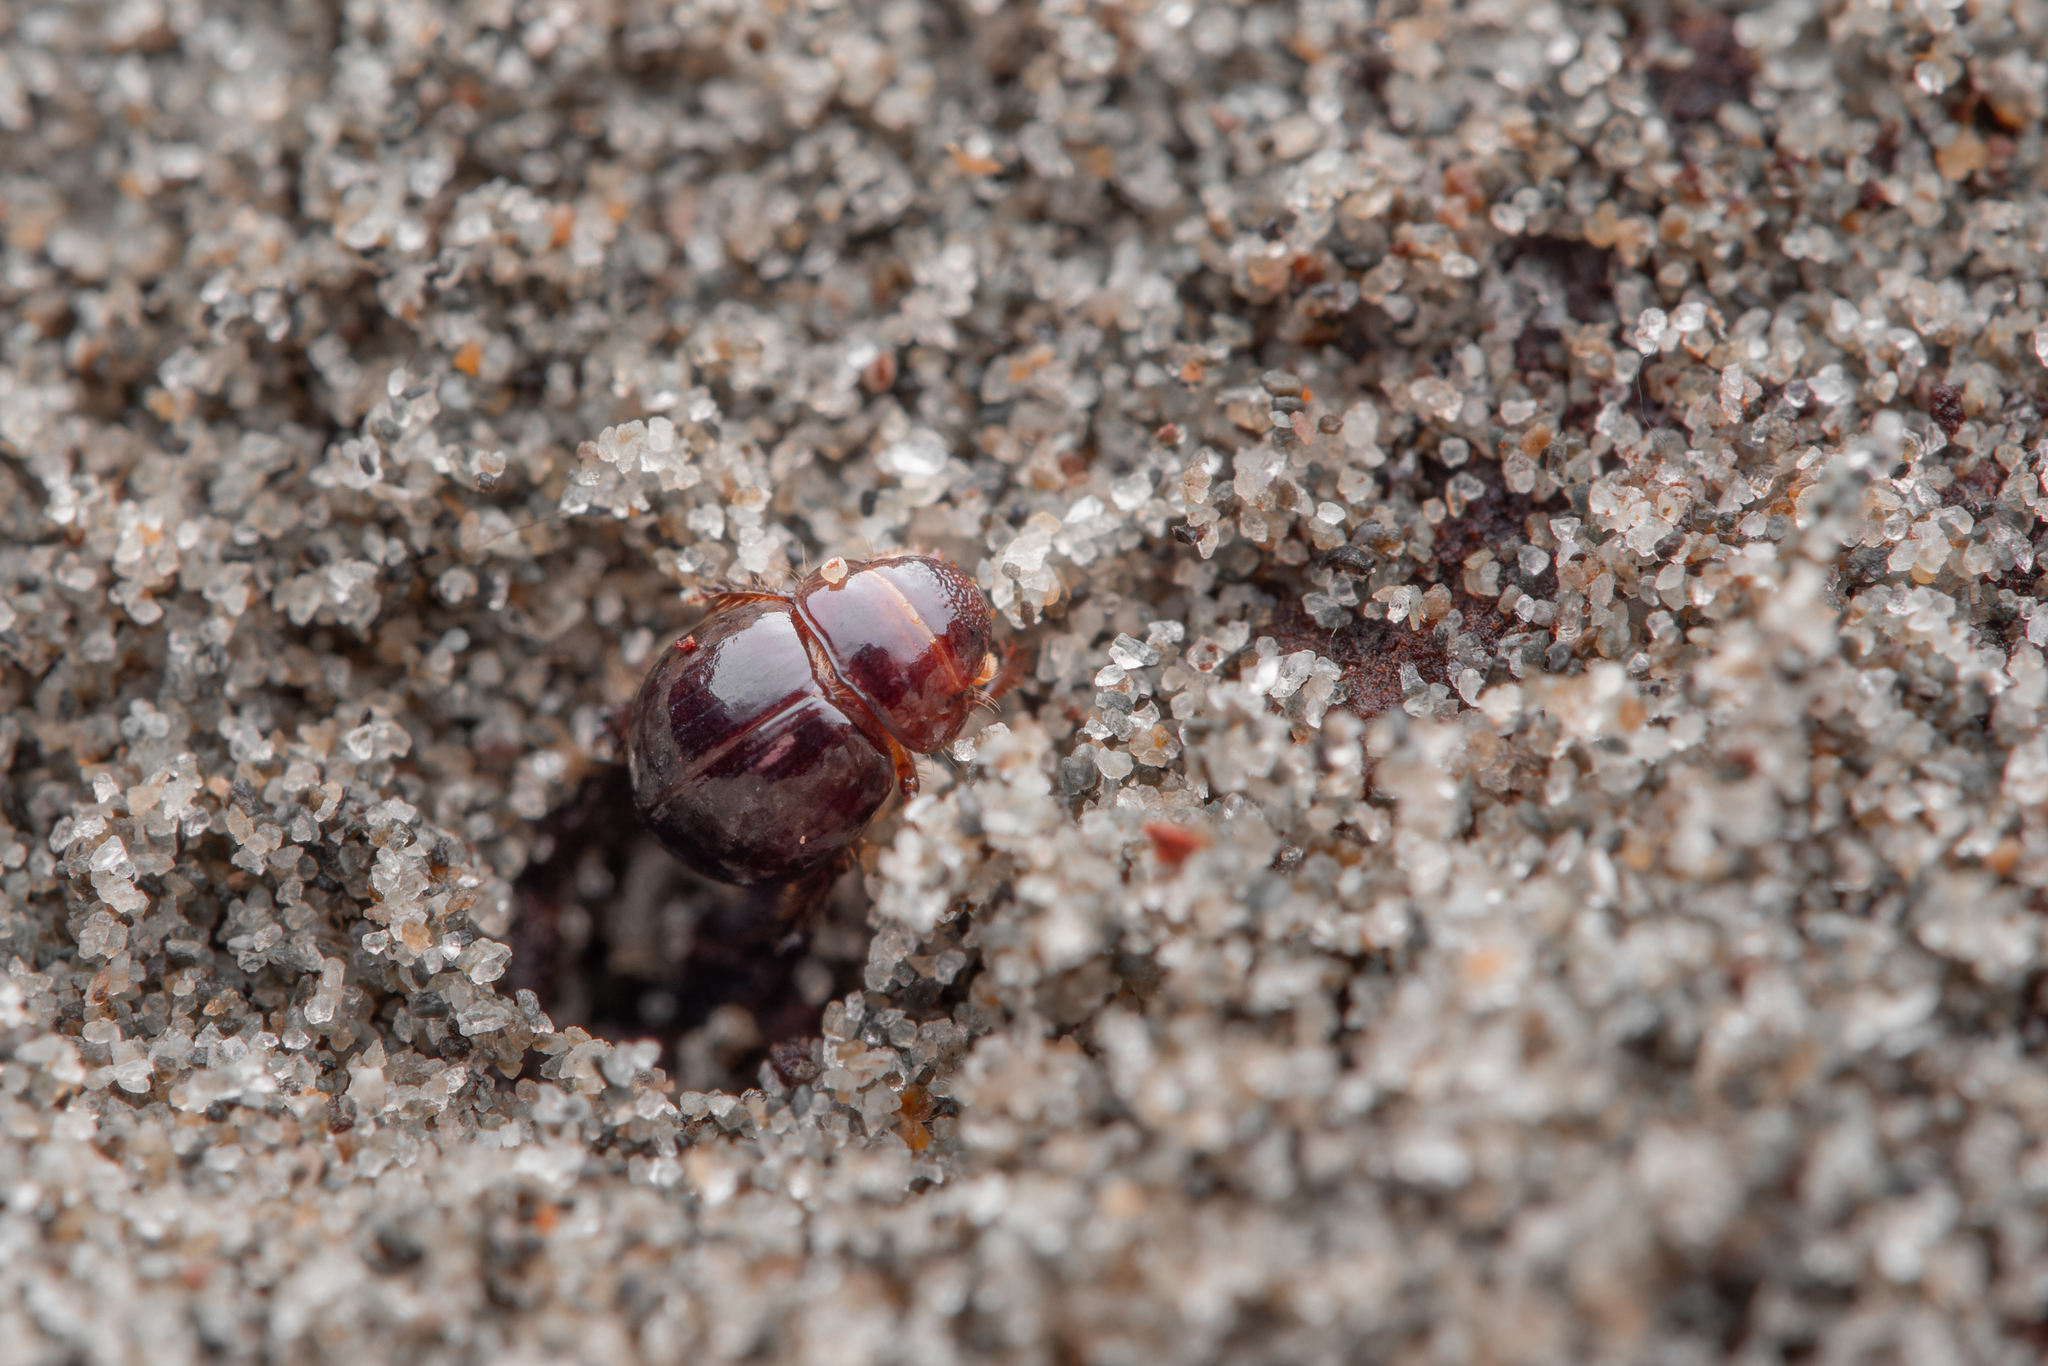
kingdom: Animalia
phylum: Arthropoda
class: Insecta
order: Coleoptera
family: Scarabaeidae
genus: Phycocus
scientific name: Phycocus graniceps
